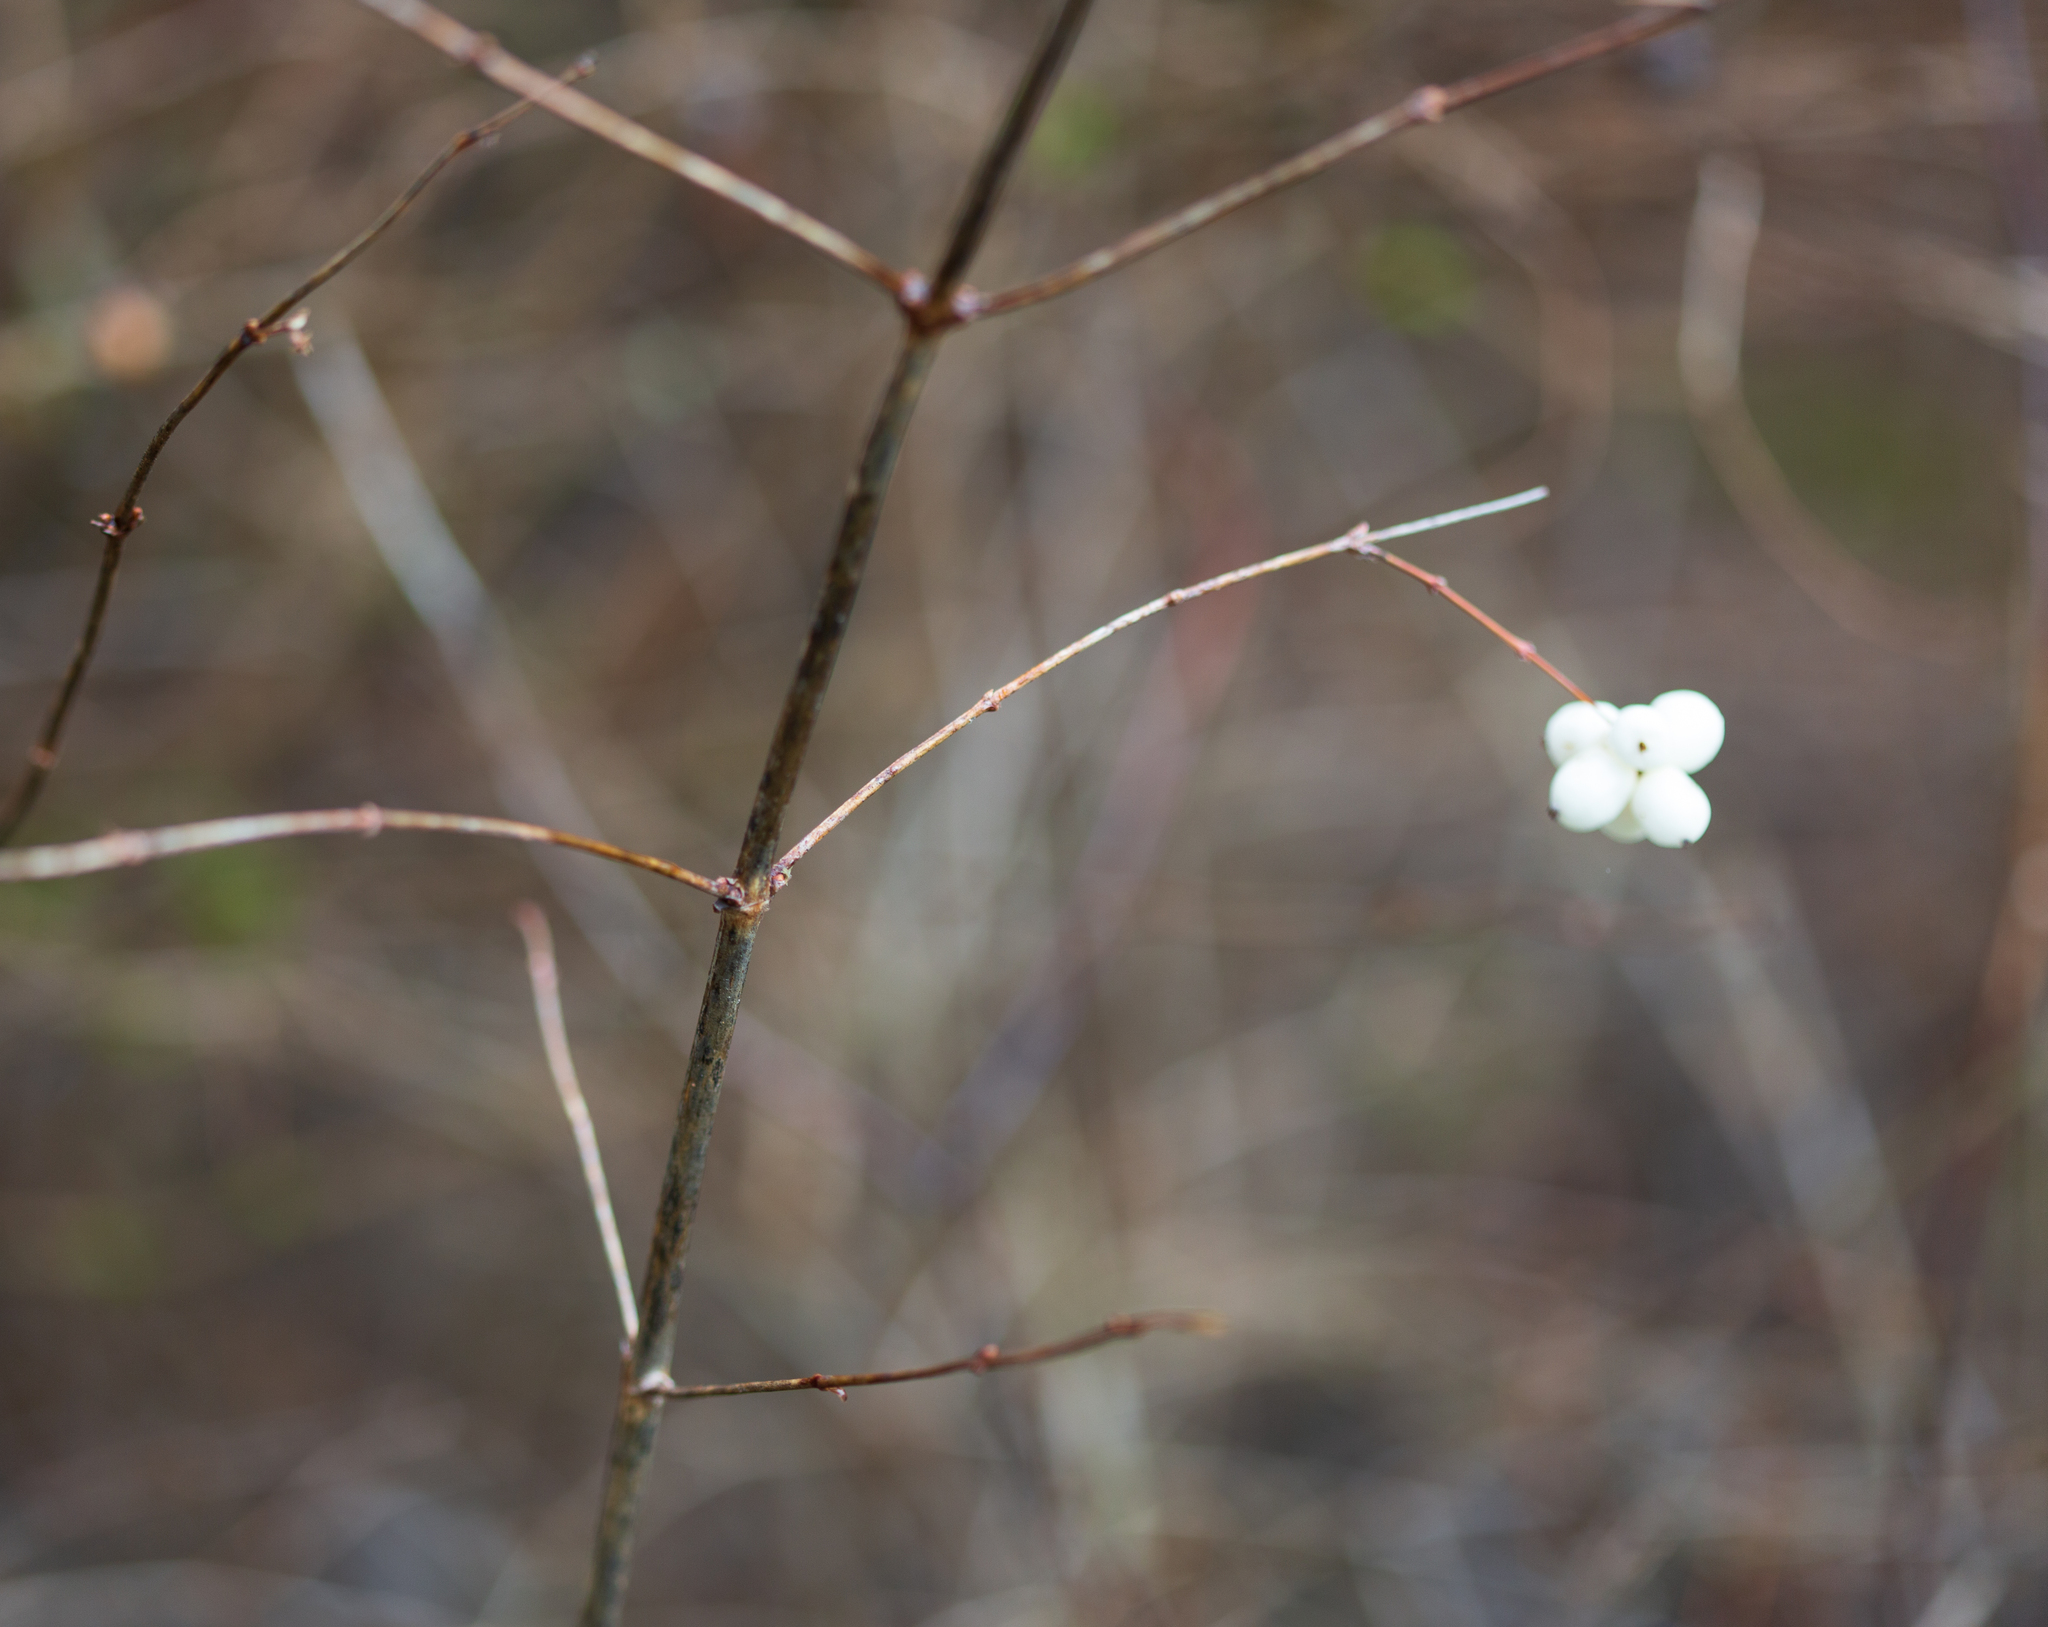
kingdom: Plantae
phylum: Tracheophyta
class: Magnoliopsida
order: Dipsacales
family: Caprifoliaceae
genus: Symphoricarpos
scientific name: Symphoricarpos albus
